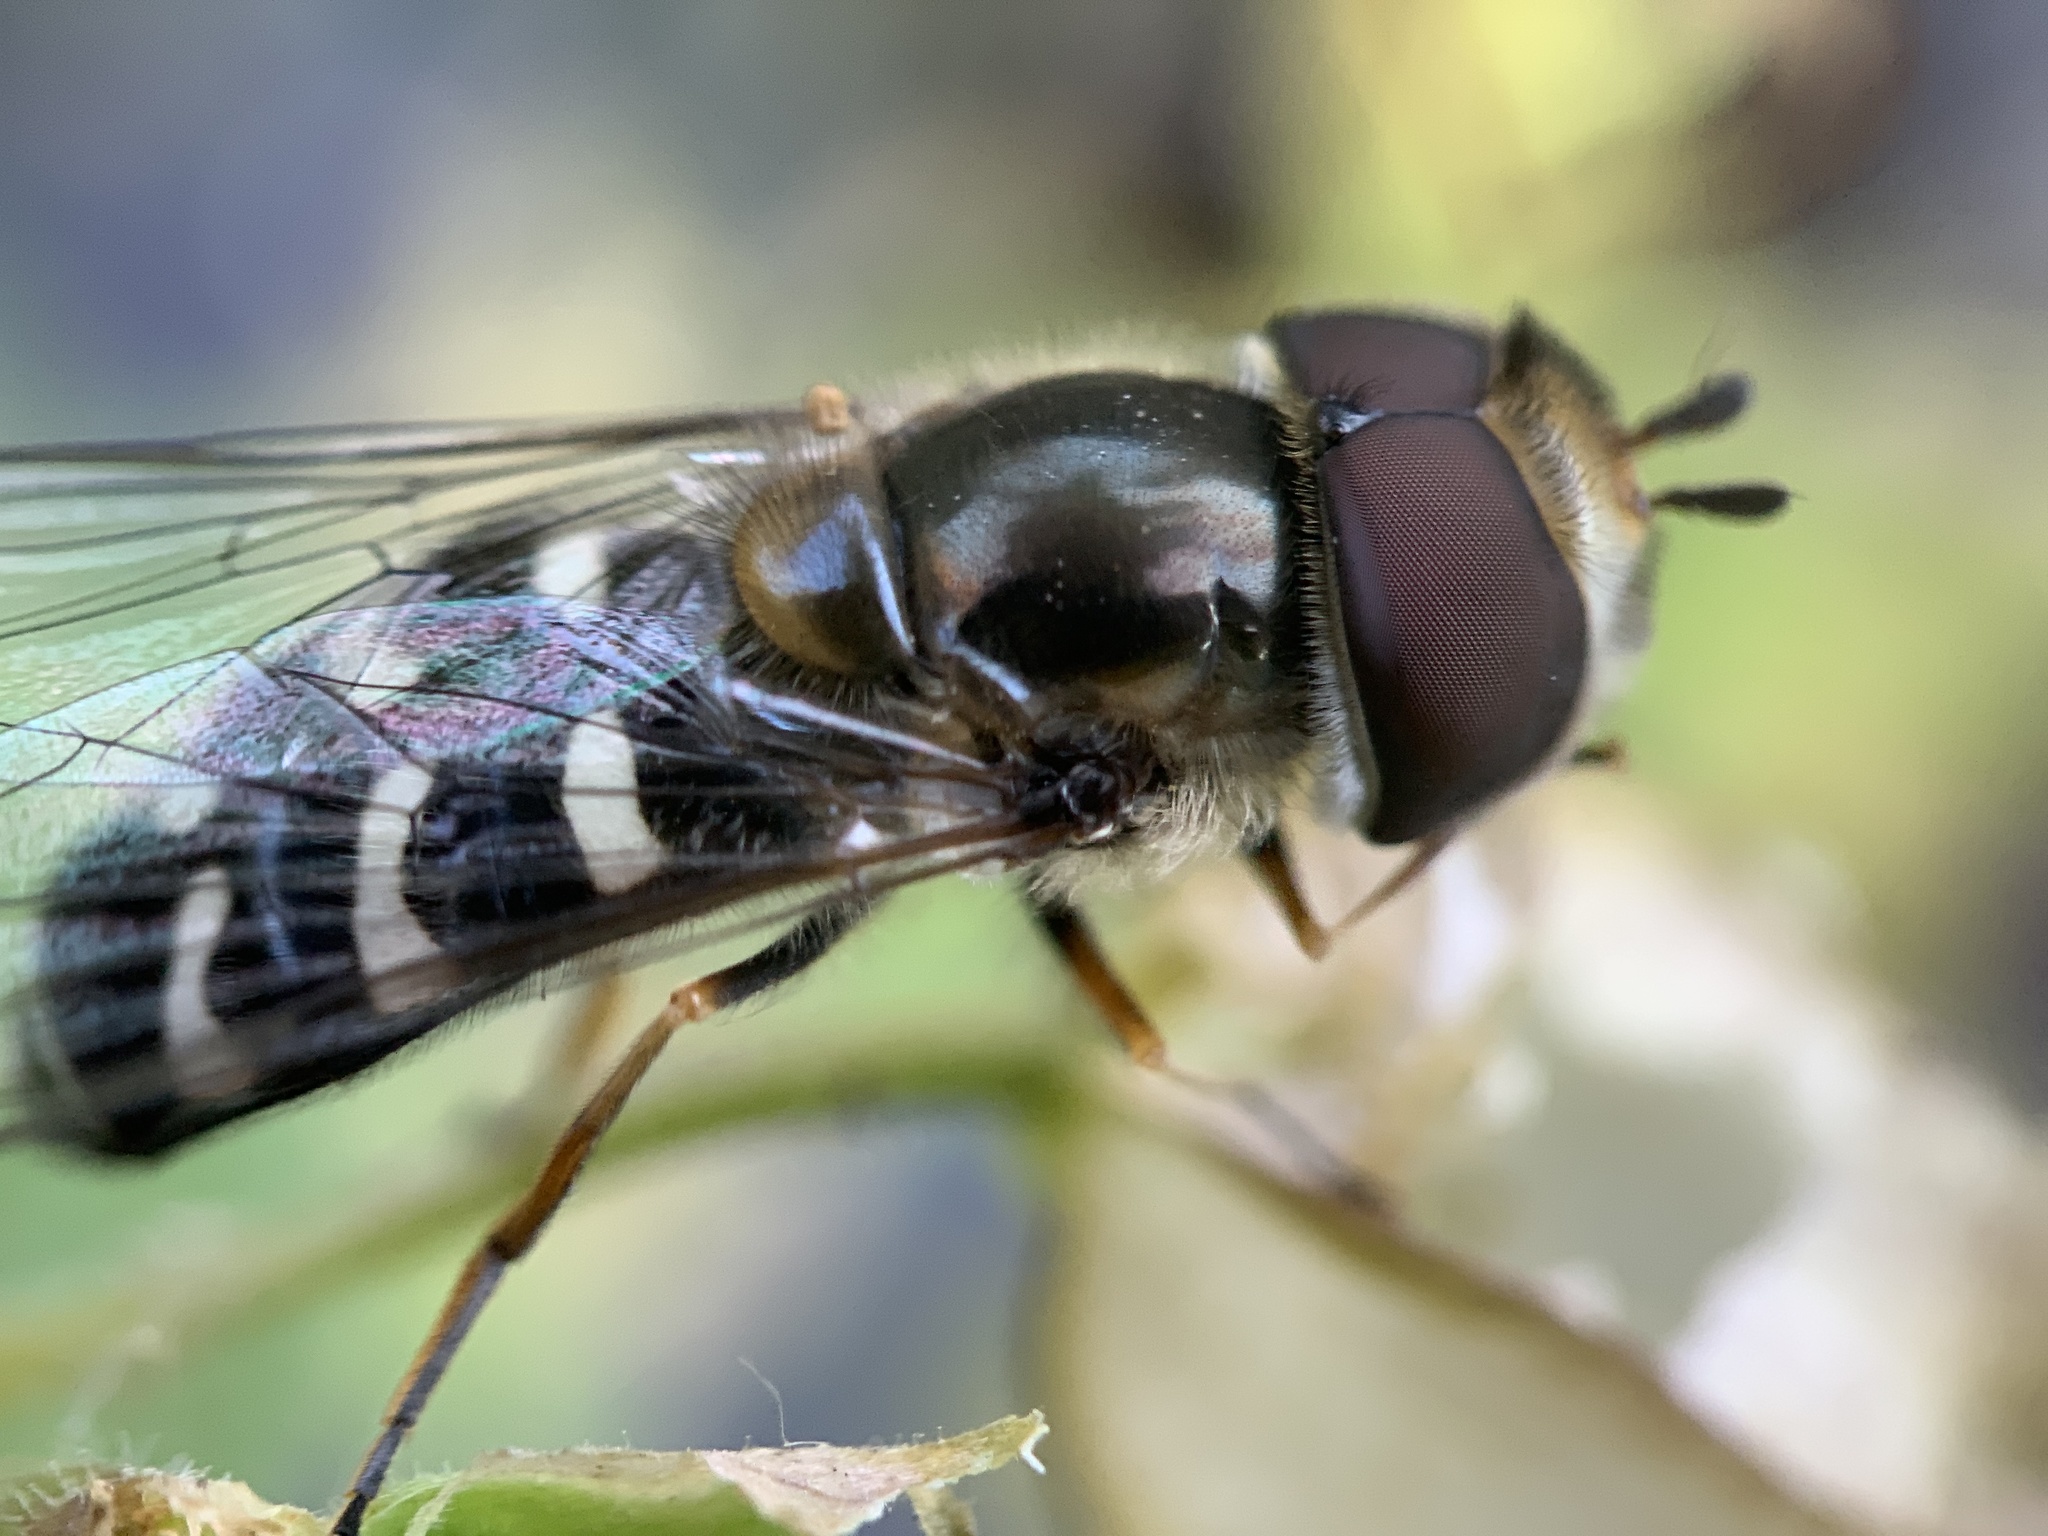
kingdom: Animalia
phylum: Arthropoda
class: Insecta
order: Diptera
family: Syrphidae
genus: Scaeva
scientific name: Scaeva affinis
